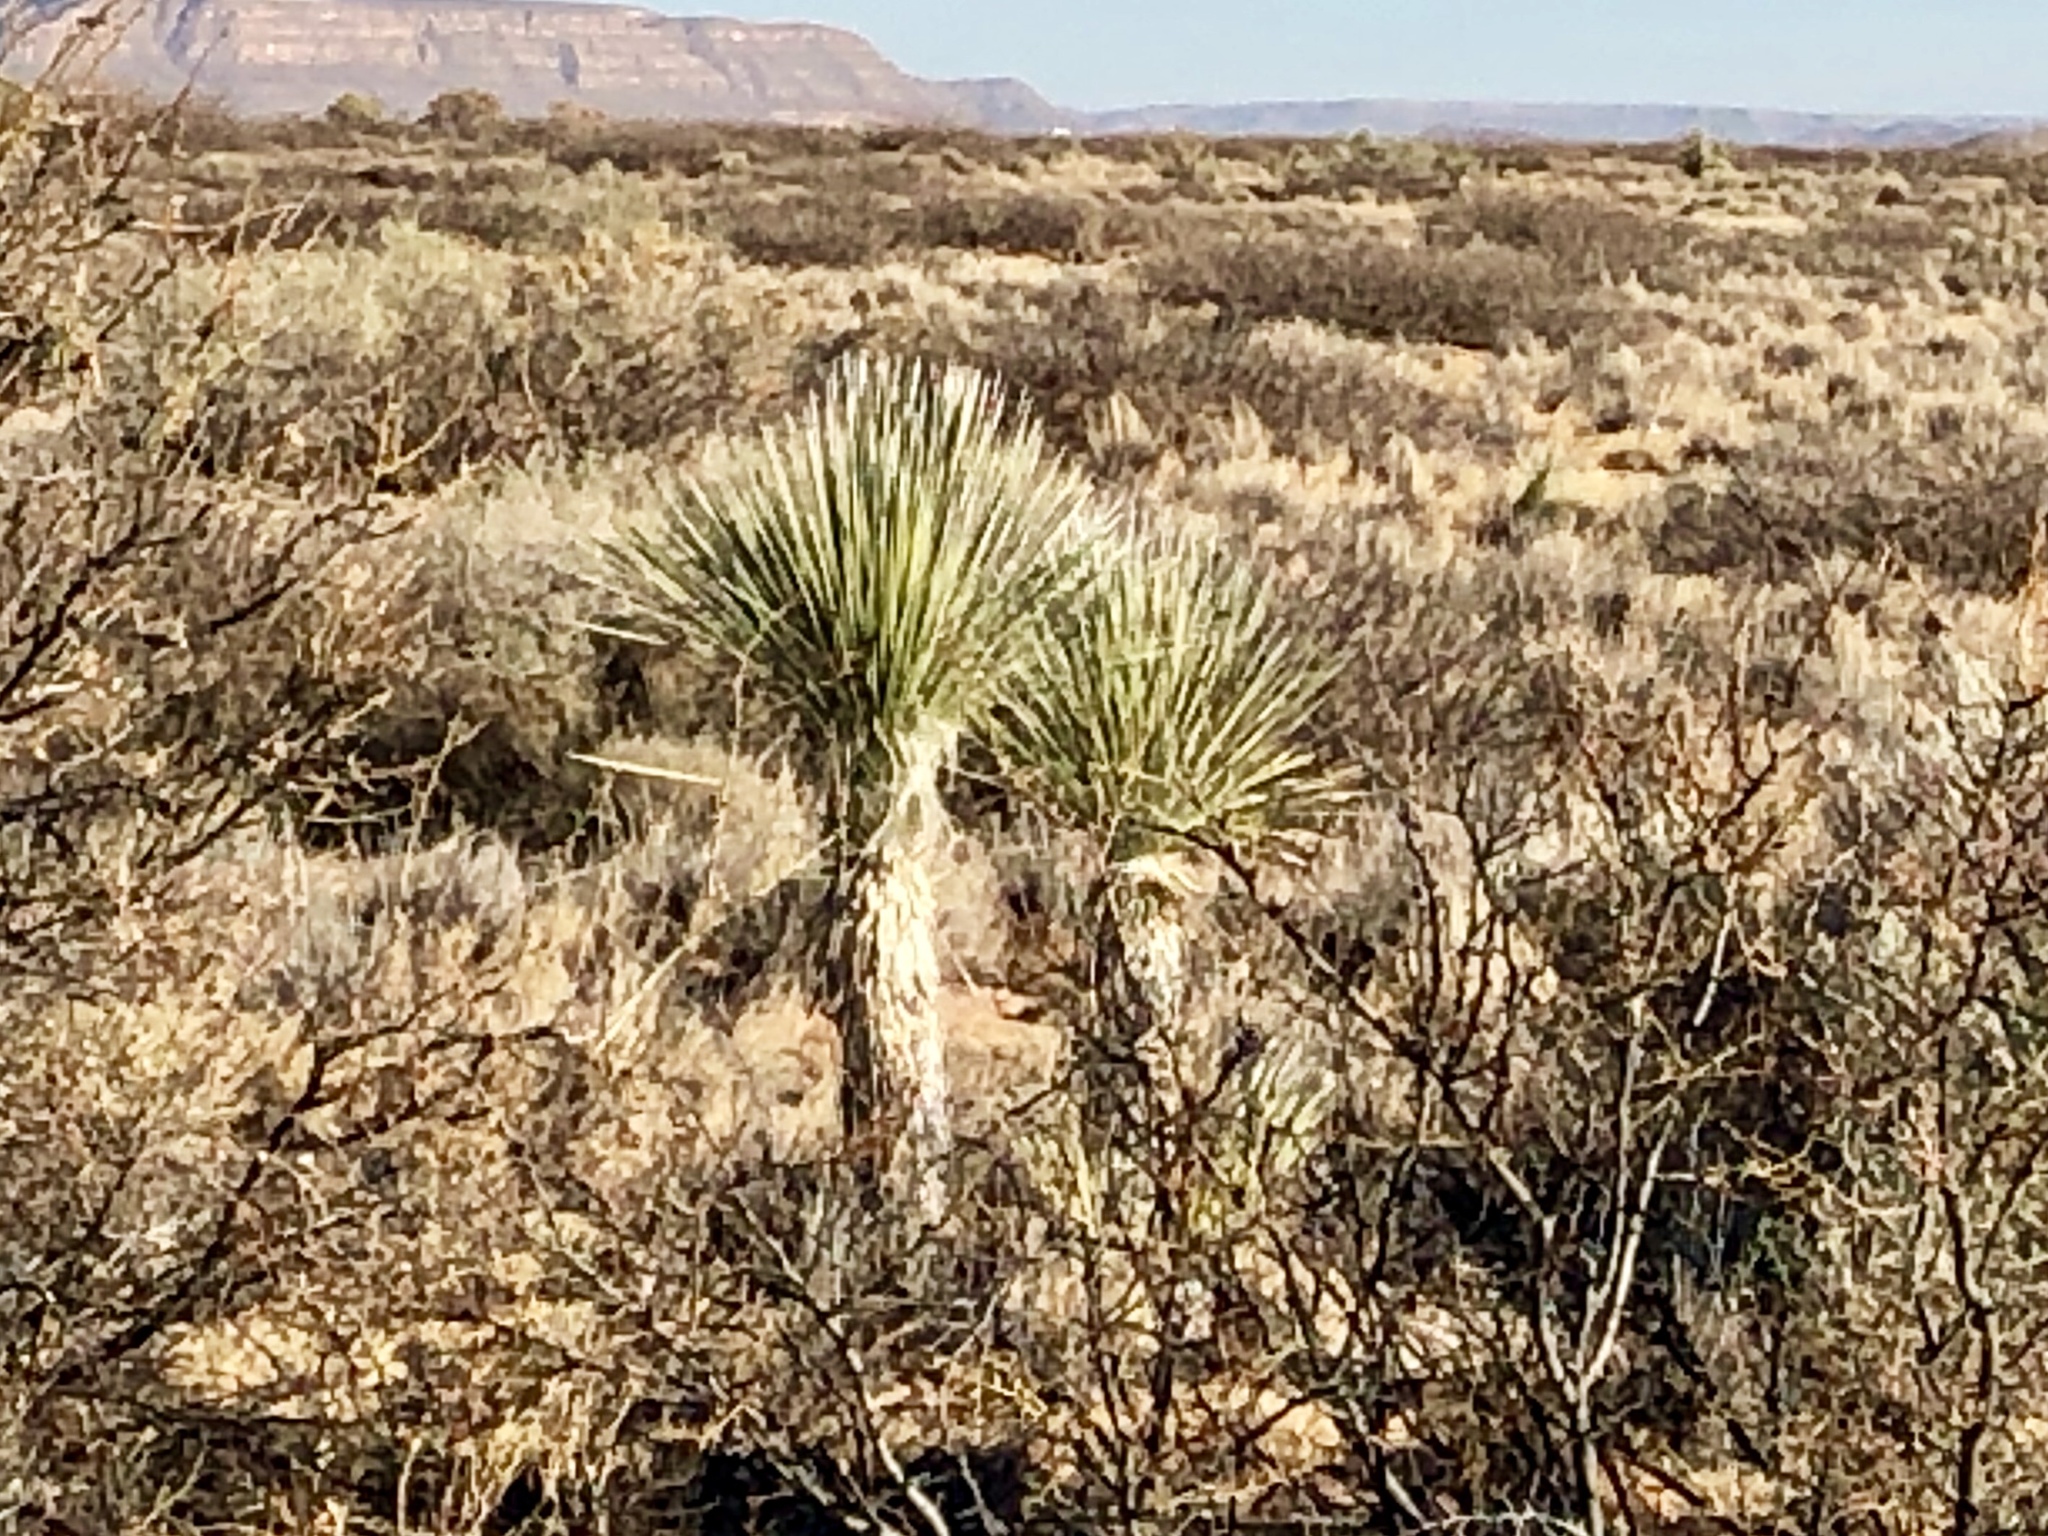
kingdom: Plantae
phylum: Tracheophyta
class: Liliopsida
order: Asparagales
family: Asparagaceae
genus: Yucca
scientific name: Yucca elata
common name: Palmella
